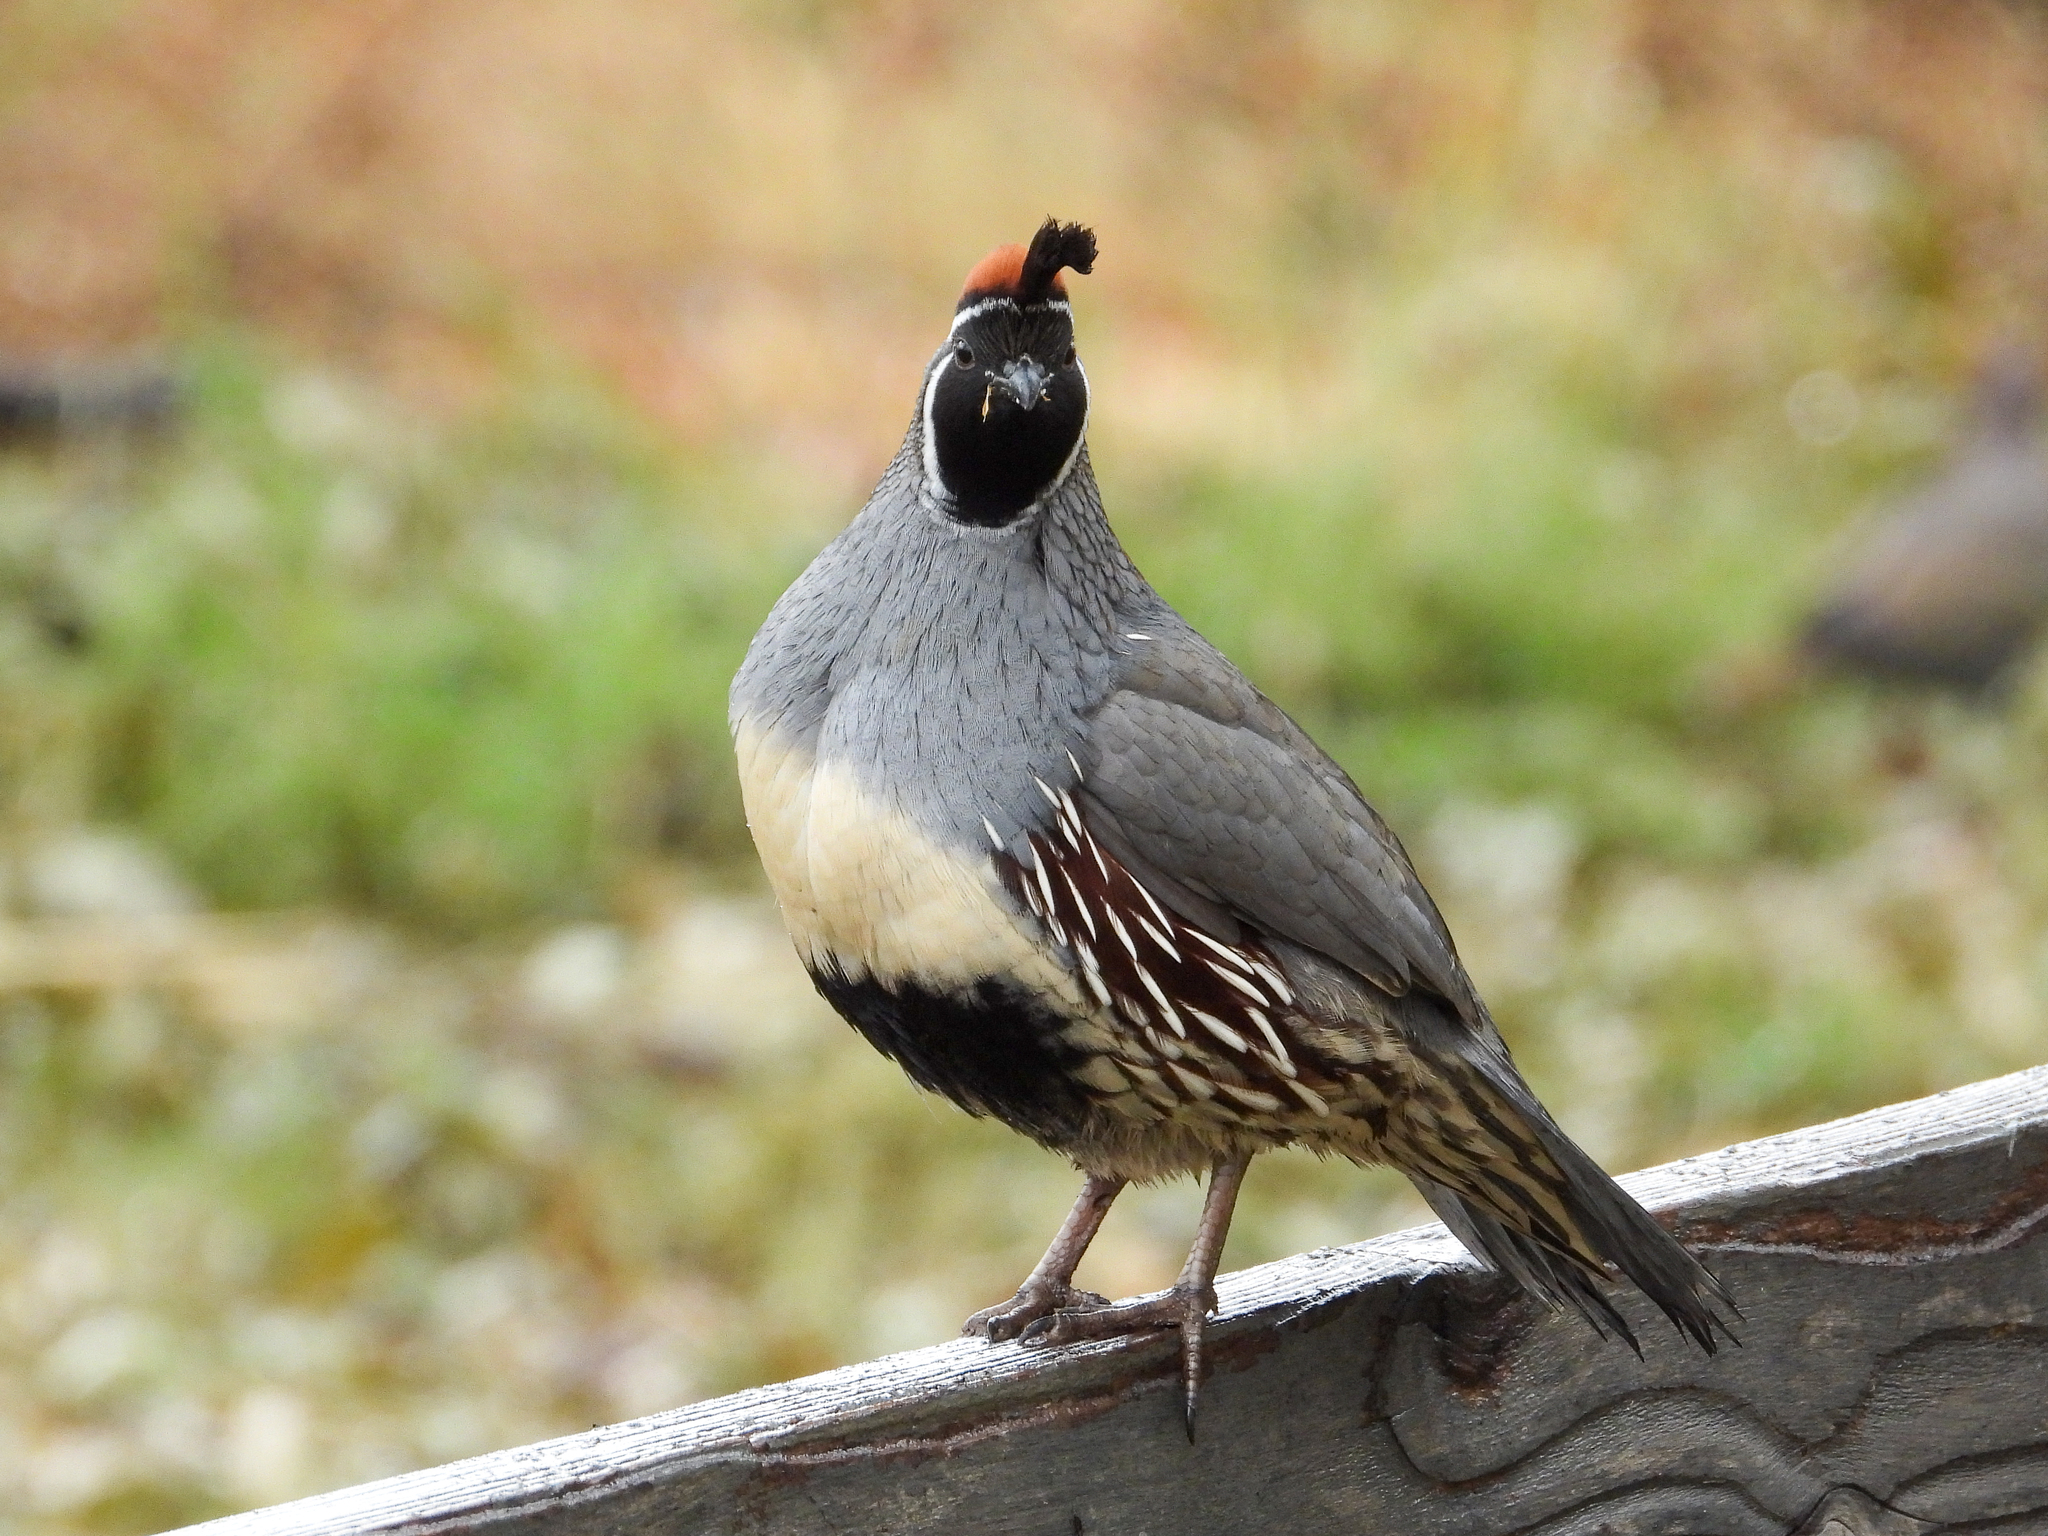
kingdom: Animalia
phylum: Chordata
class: Aves
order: Galliformes
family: Odontophoridae
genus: Callipepla
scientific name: Callipepla gambelii
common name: Gambel's quail
